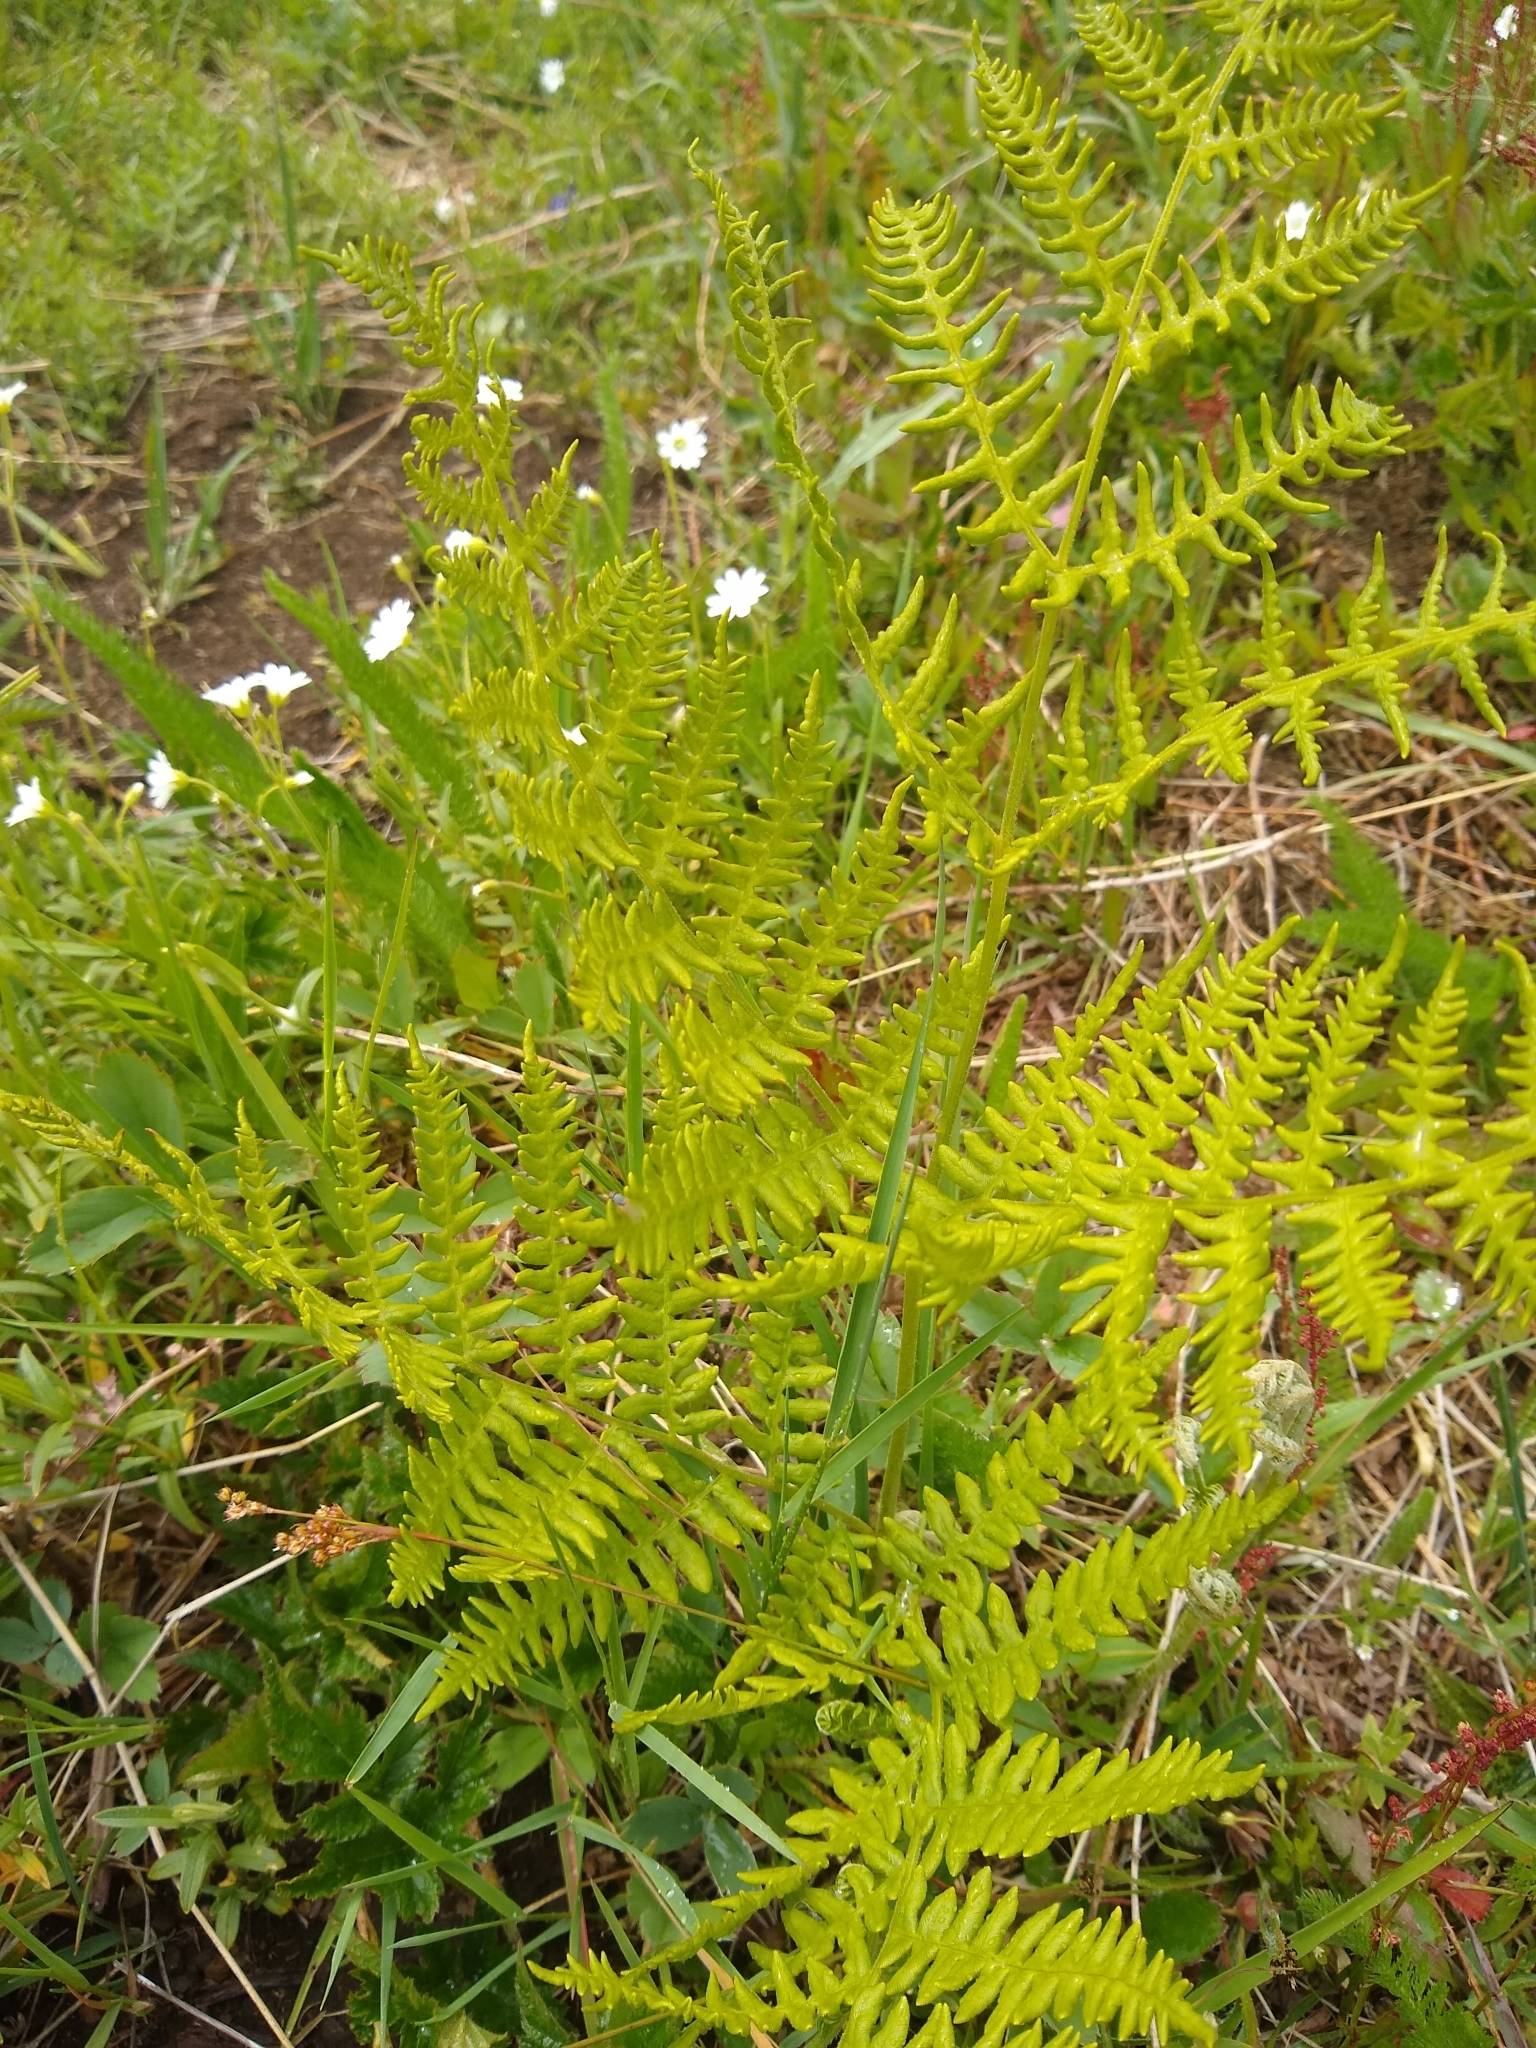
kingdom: Plantae
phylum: Tracheophyta
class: Polypodiopsida
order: Polypodiales
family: Dennstaedtiaceae
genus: Pteridium
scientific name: Pteridium aquilinum
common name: Bracken
